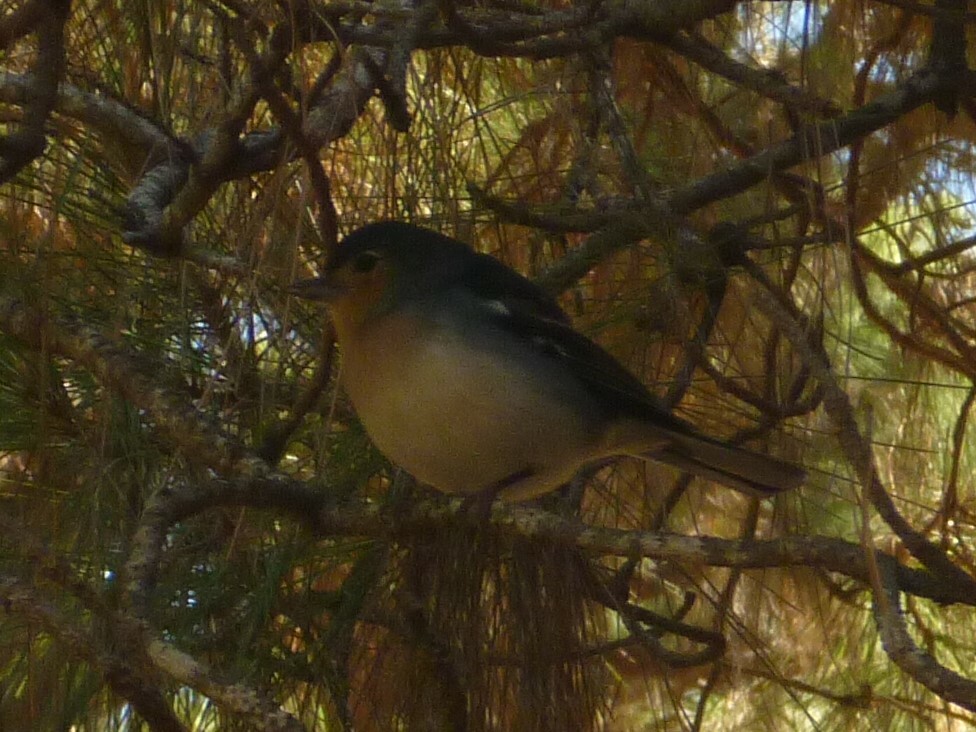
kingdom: Animalia
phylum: Chordata
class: Aves
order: Passeriformes
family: Fringillidae
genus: Fringilla
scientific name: Fringilla canariensis
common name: Canary islands chaffinch
